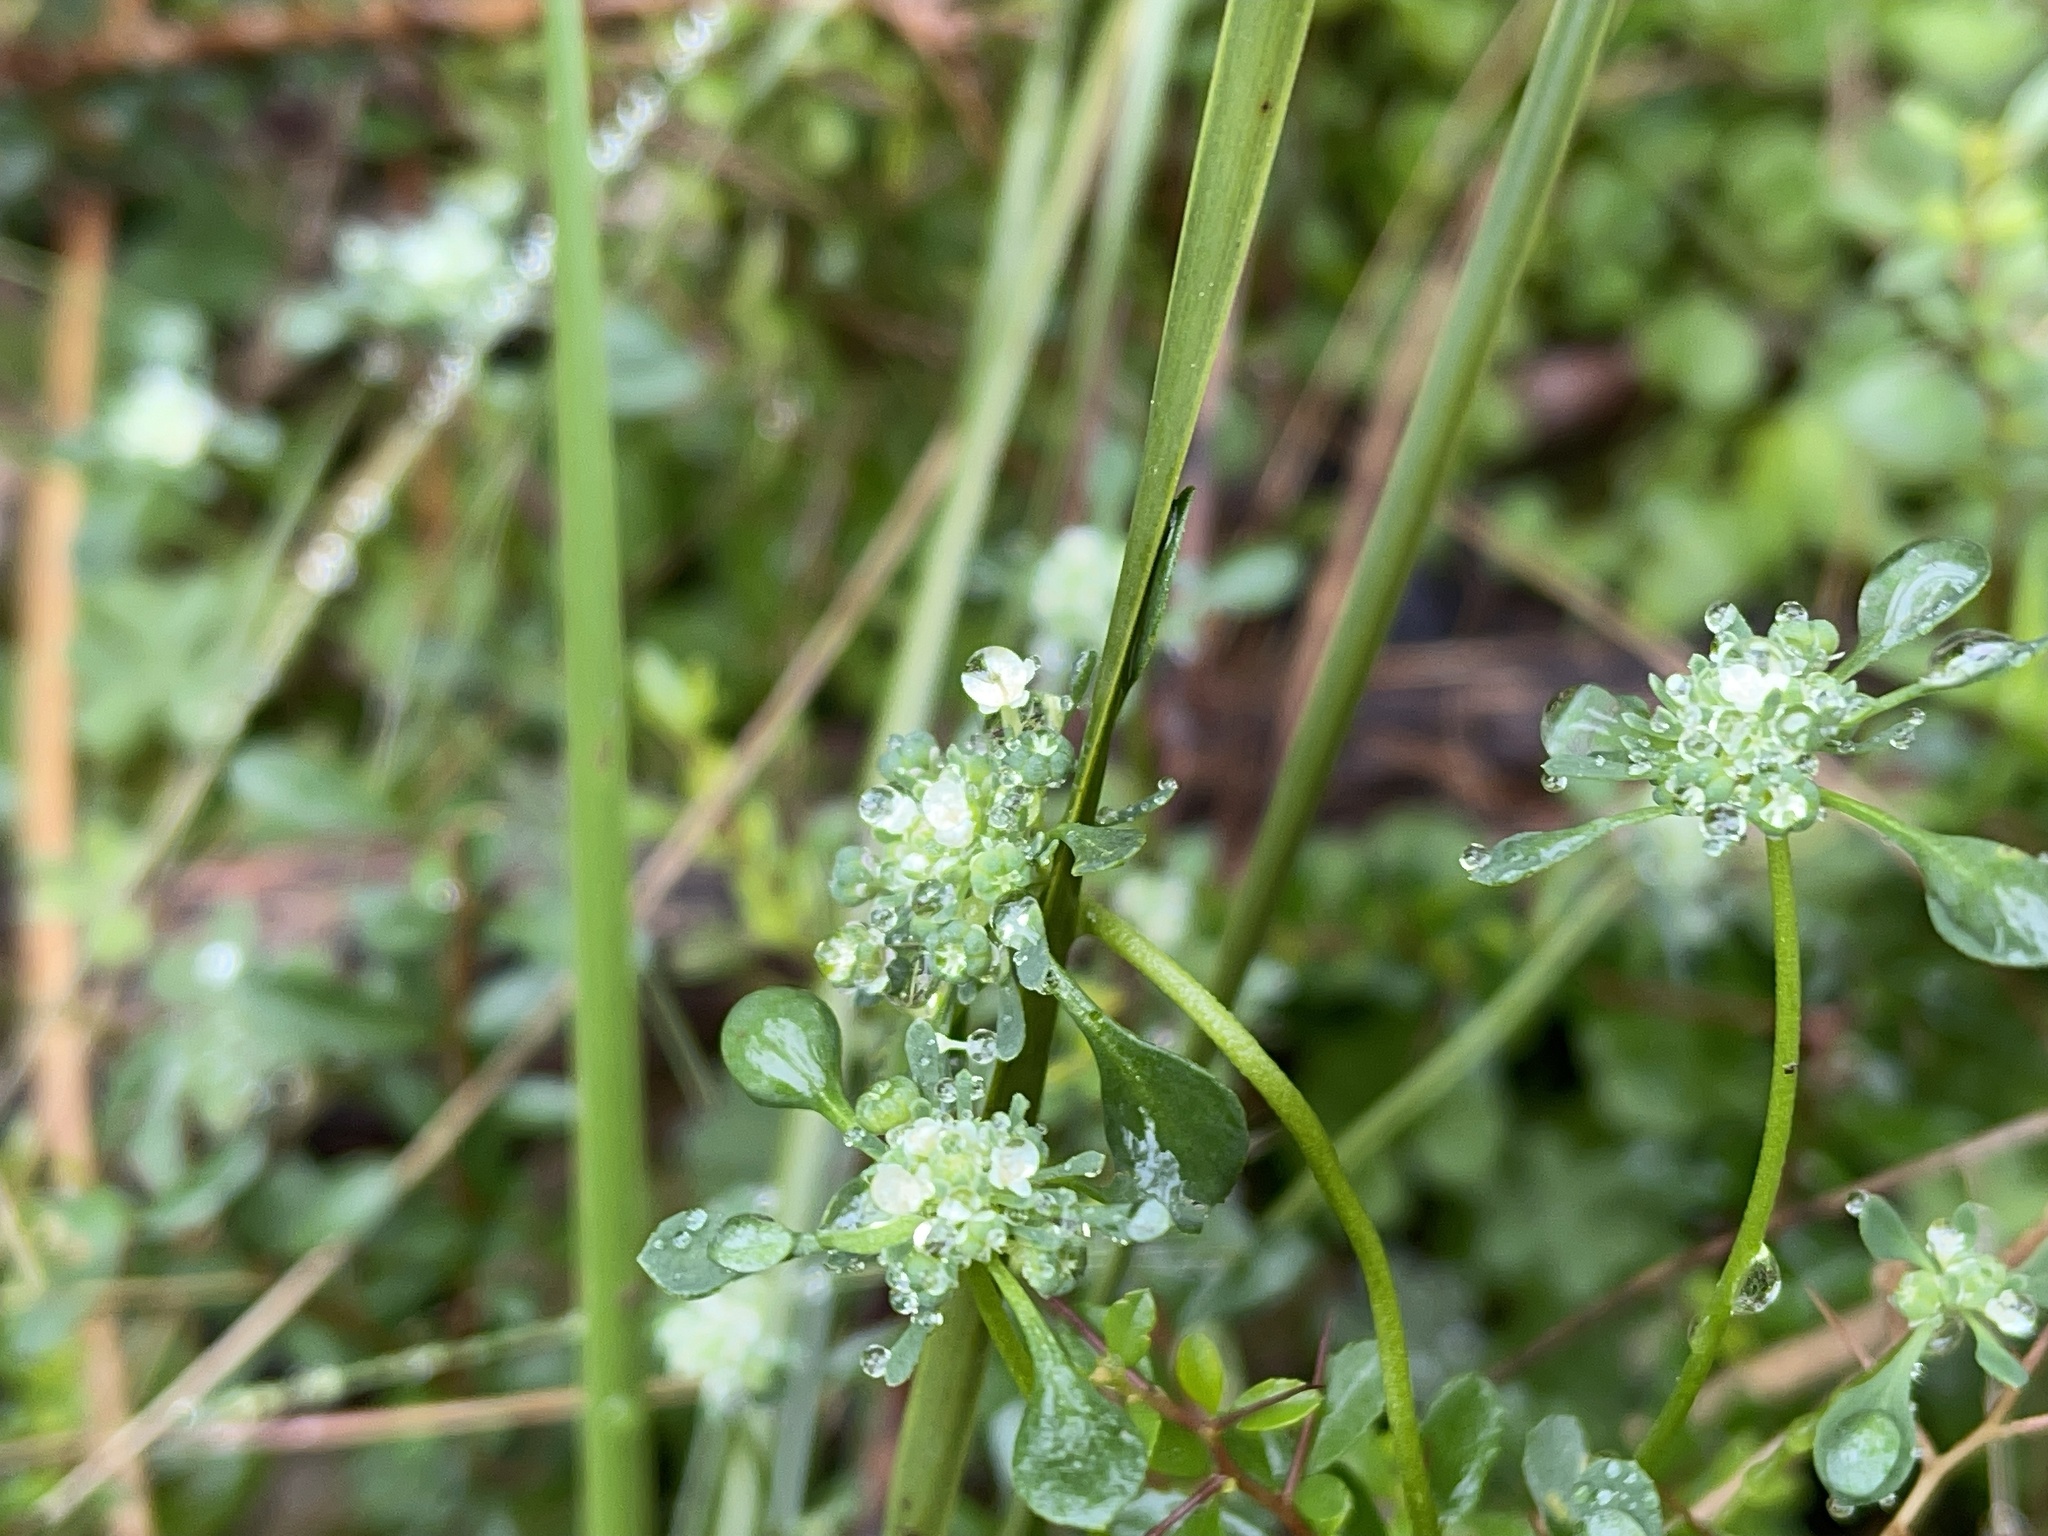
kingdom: Plantae
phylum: Tracheophyta
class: Magnoliopsida
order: Malpighiales
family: Phyllanthaceae
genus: Poranthera
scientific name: Poranthera microphylla
